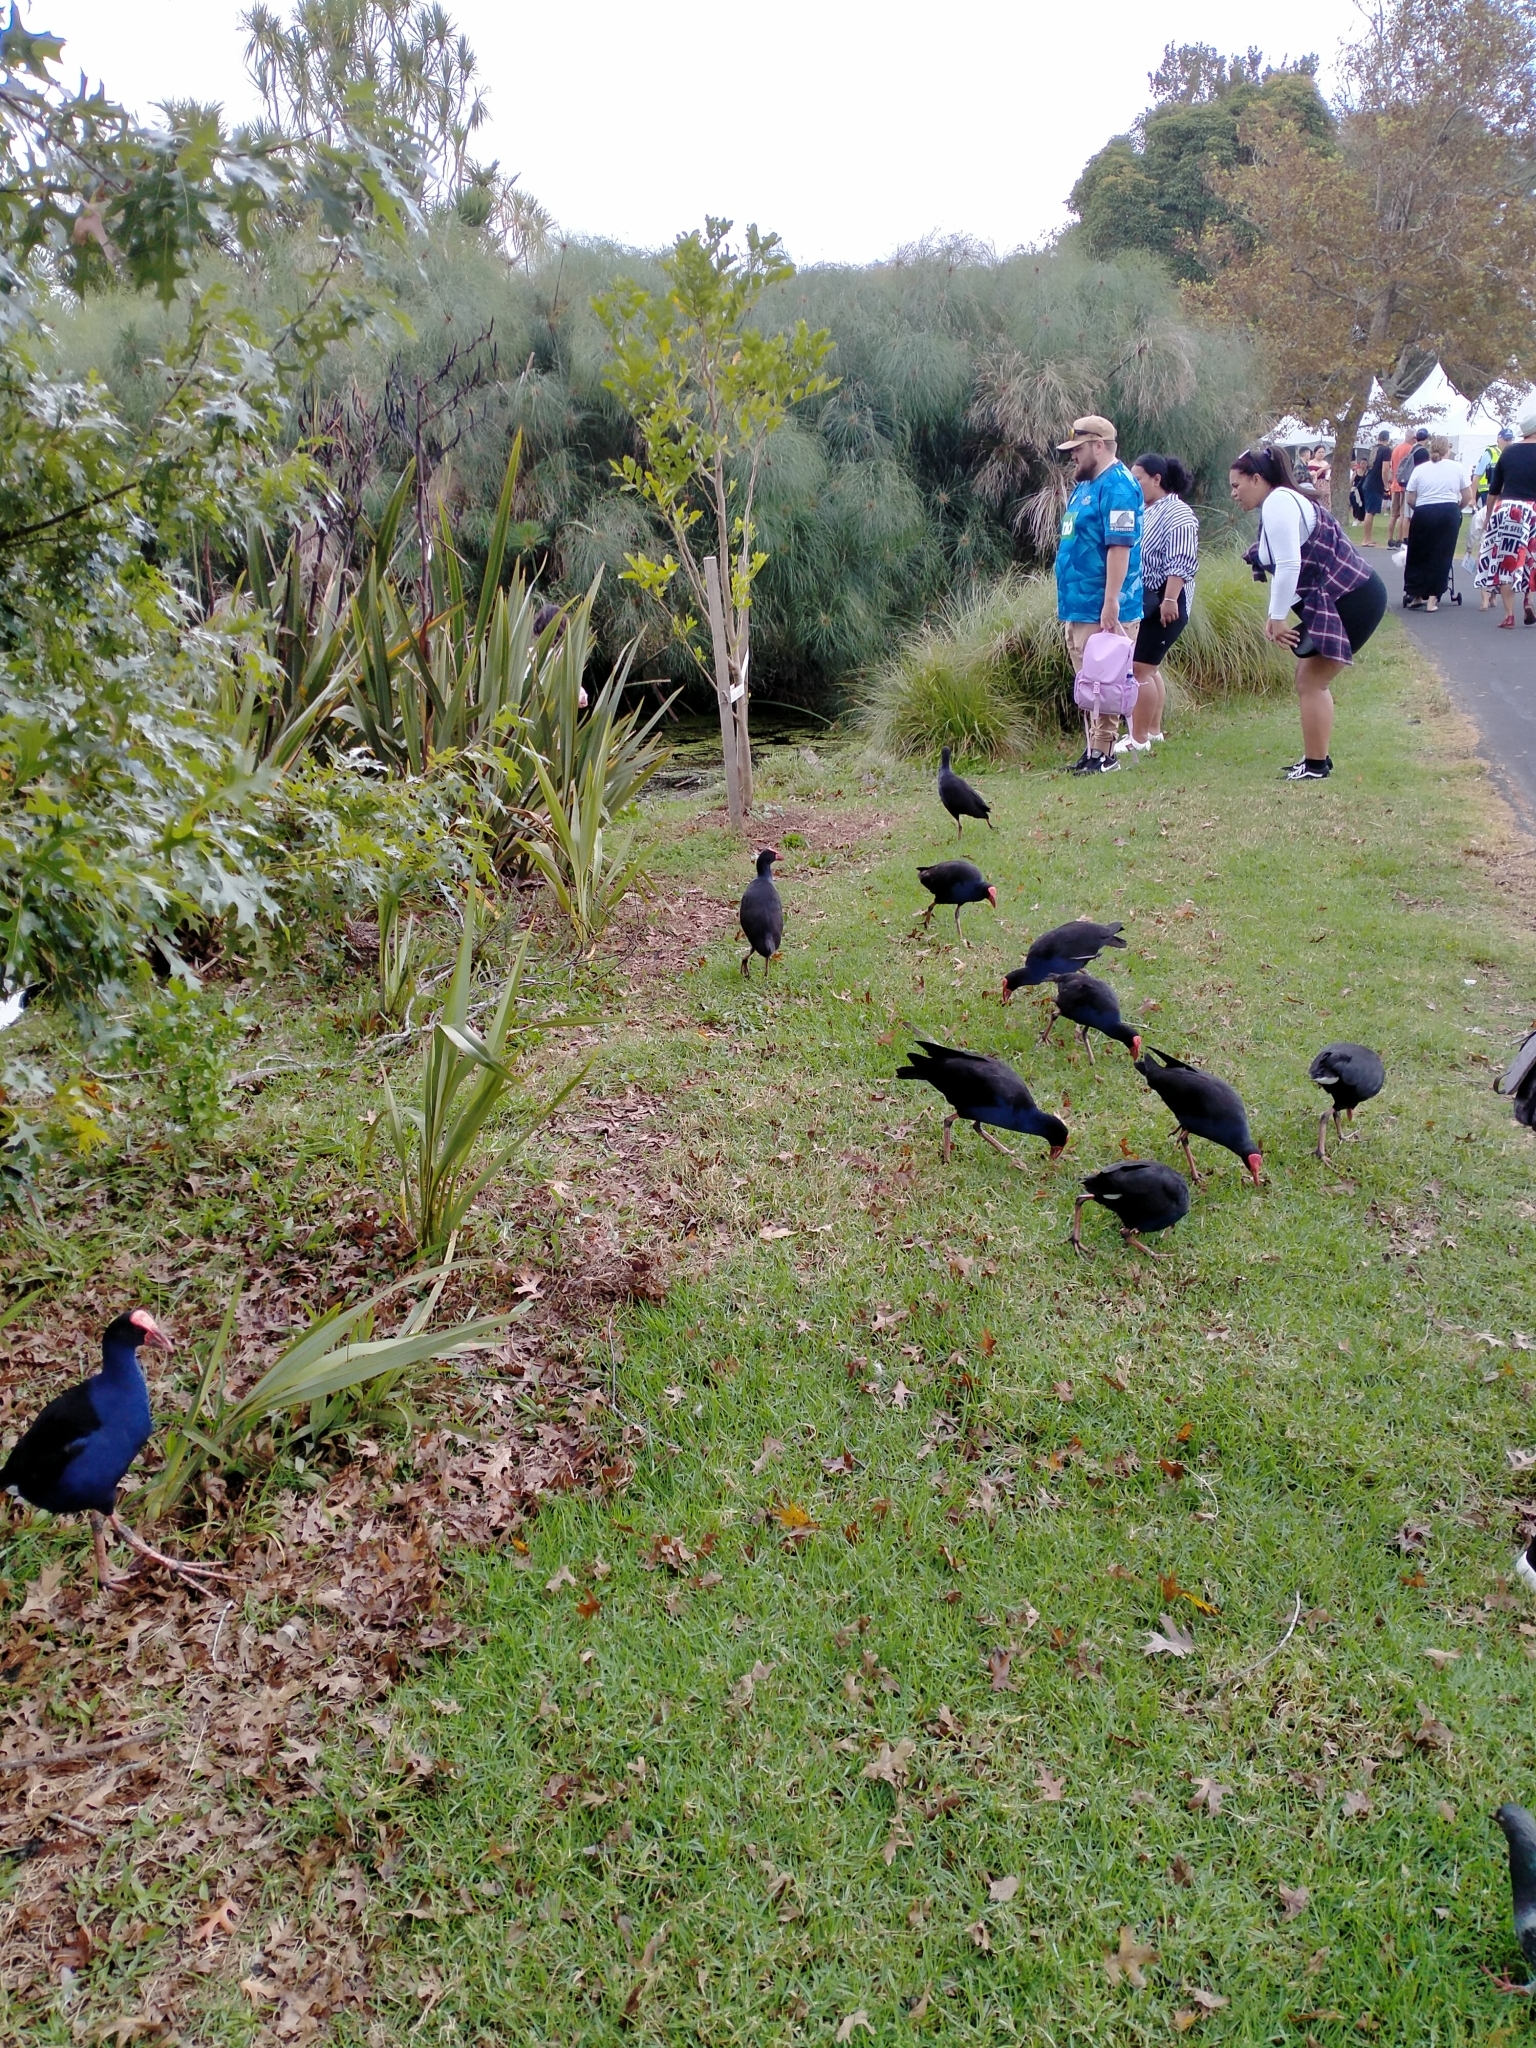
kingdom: Animalia
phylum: Chordata
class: Aves
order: Gruiformes
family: Rallidae
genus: Porphyrio
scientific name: Porphyrio melanotus
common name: Australasian swamphen
